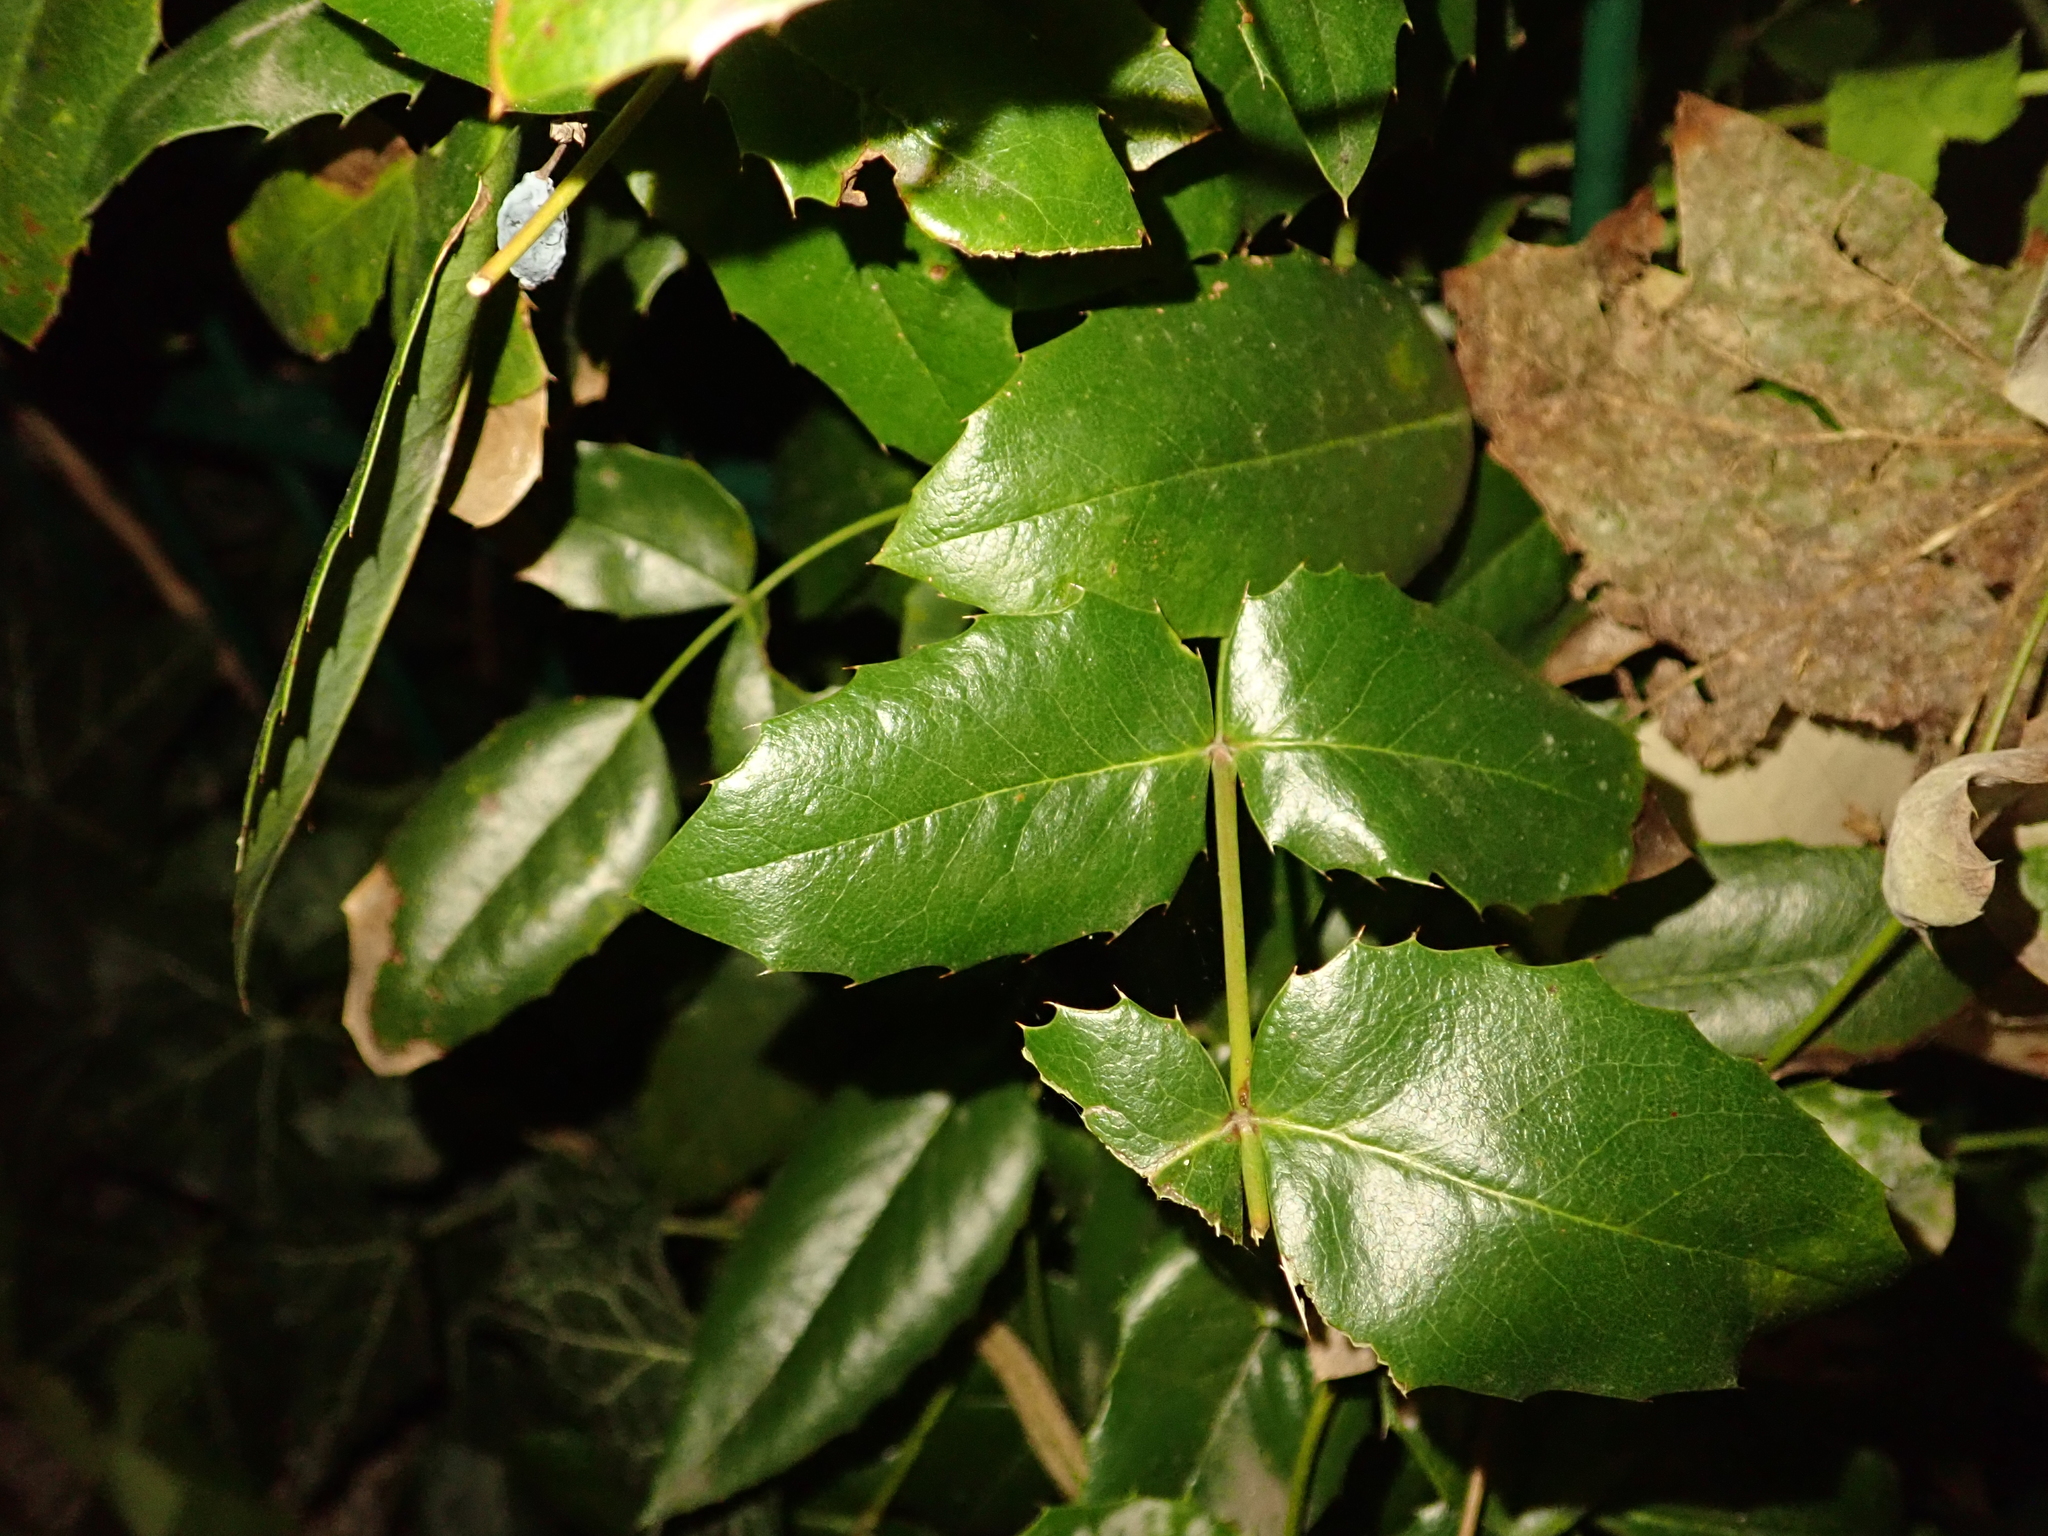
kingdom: Plantae
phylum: Tracheophyta
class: Magnoliopsida
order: Ranunculales
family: Berberidaceae
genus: Mahonia
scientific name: Mahonia aquifolium
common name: Oregon-grape
